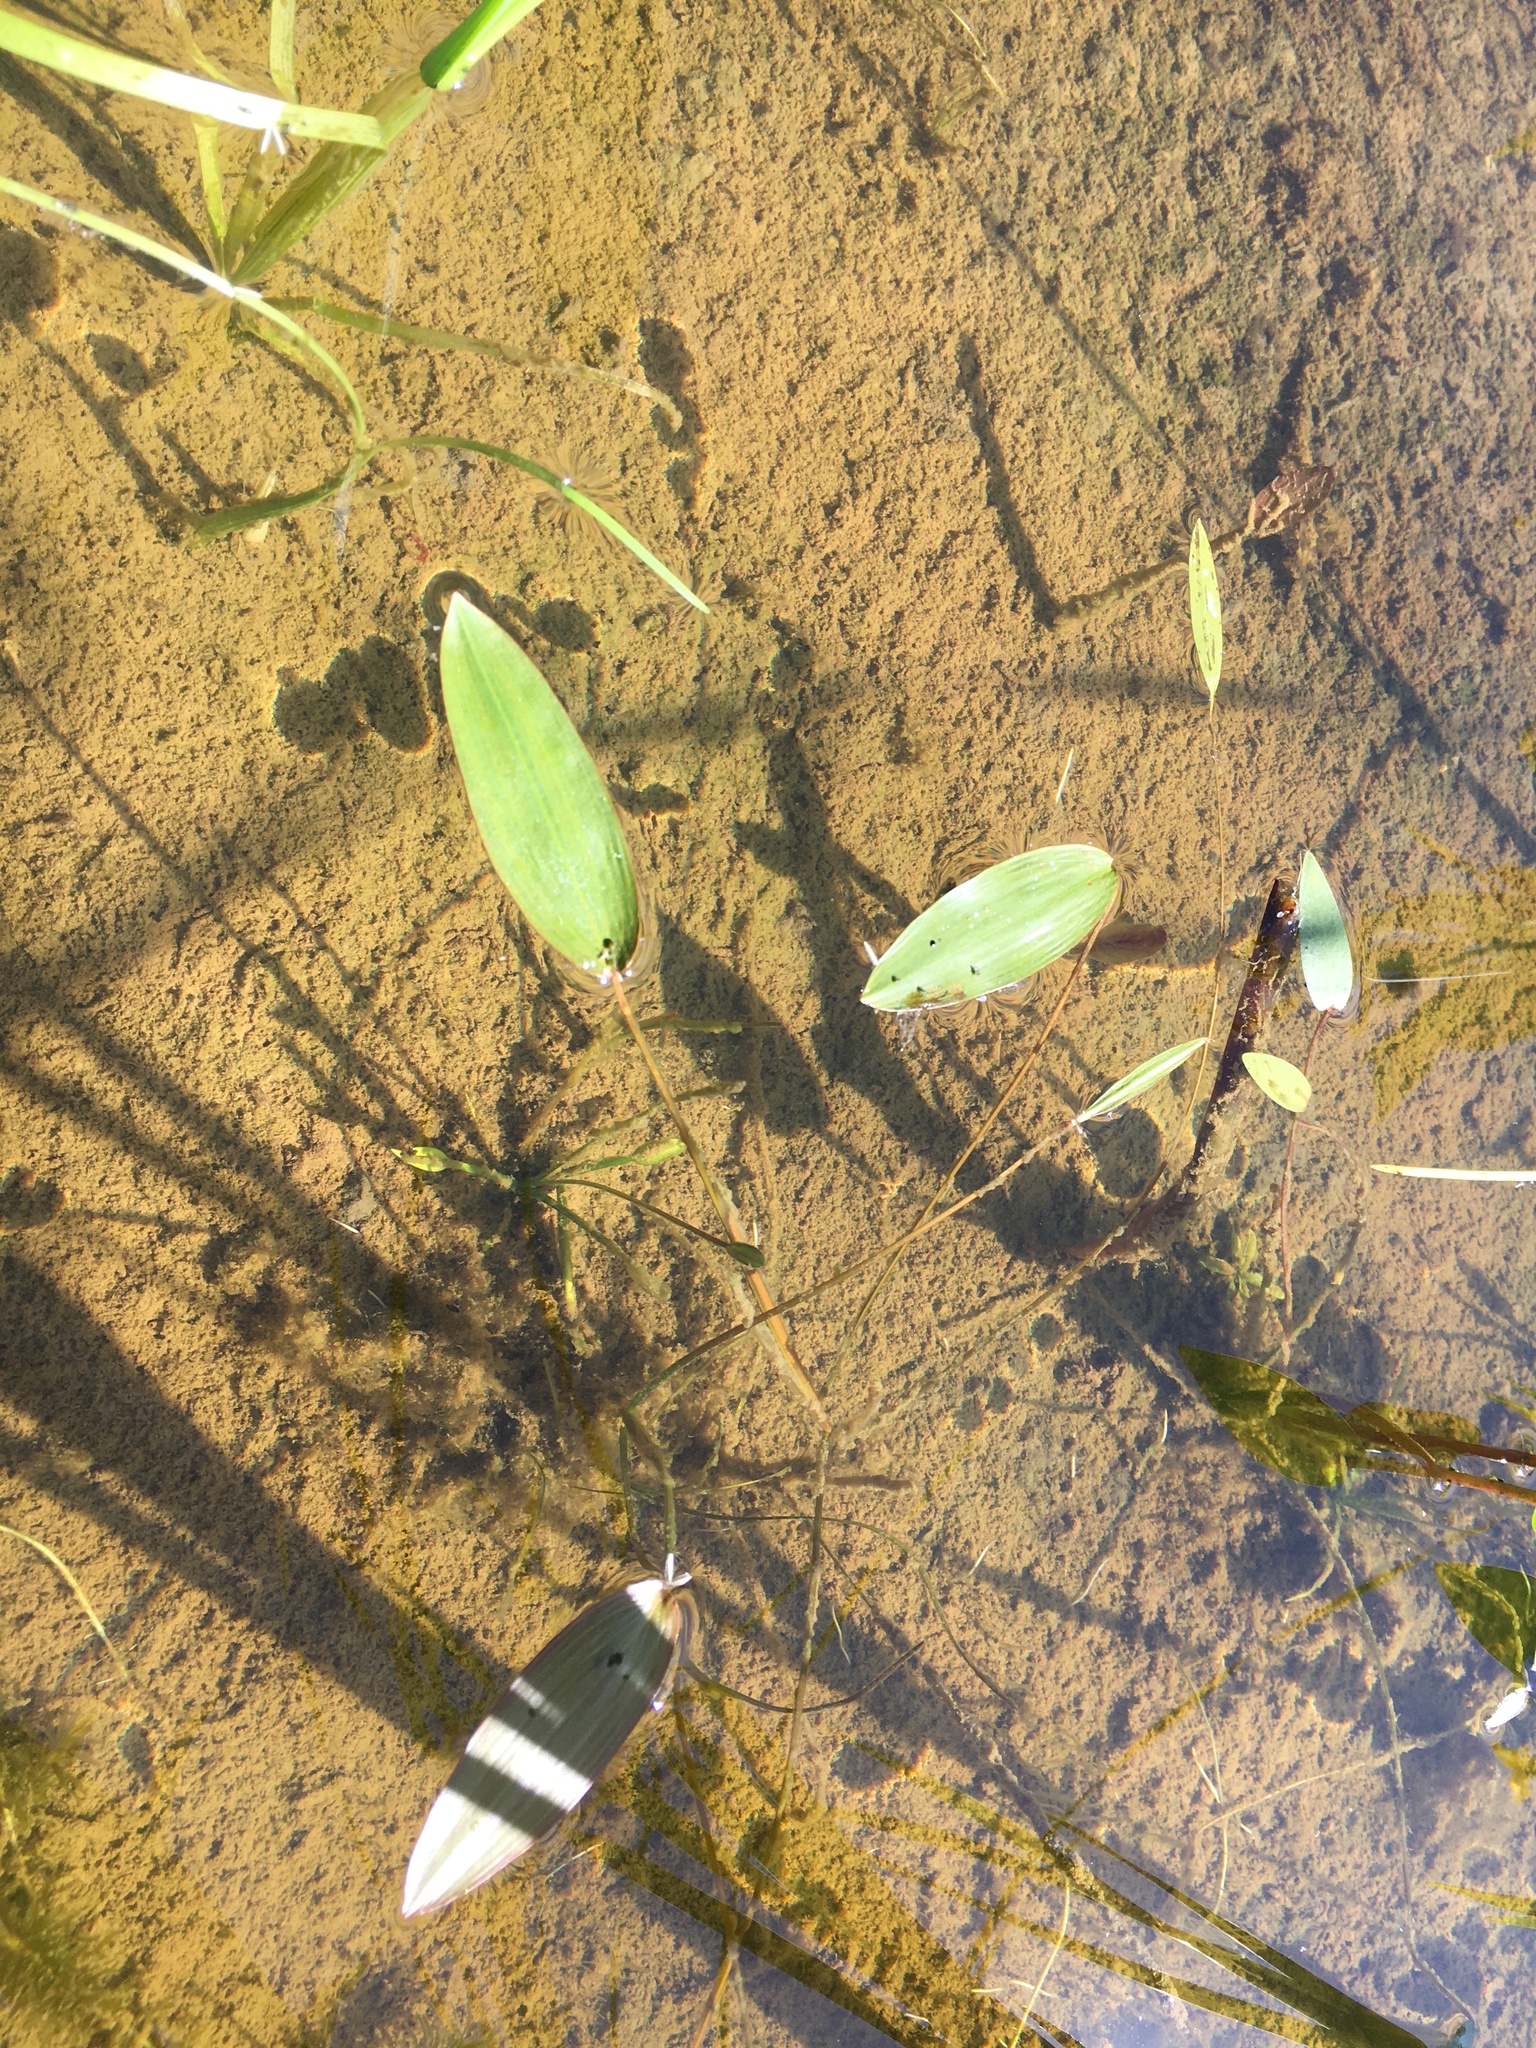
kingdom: Plantae
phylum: Tracheophyta
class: Liliopsida
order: Alismatales
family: Potamogetonaceae
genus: Potamogeton
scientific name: Potamogeton natans
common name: Broad-leaved pondweed
